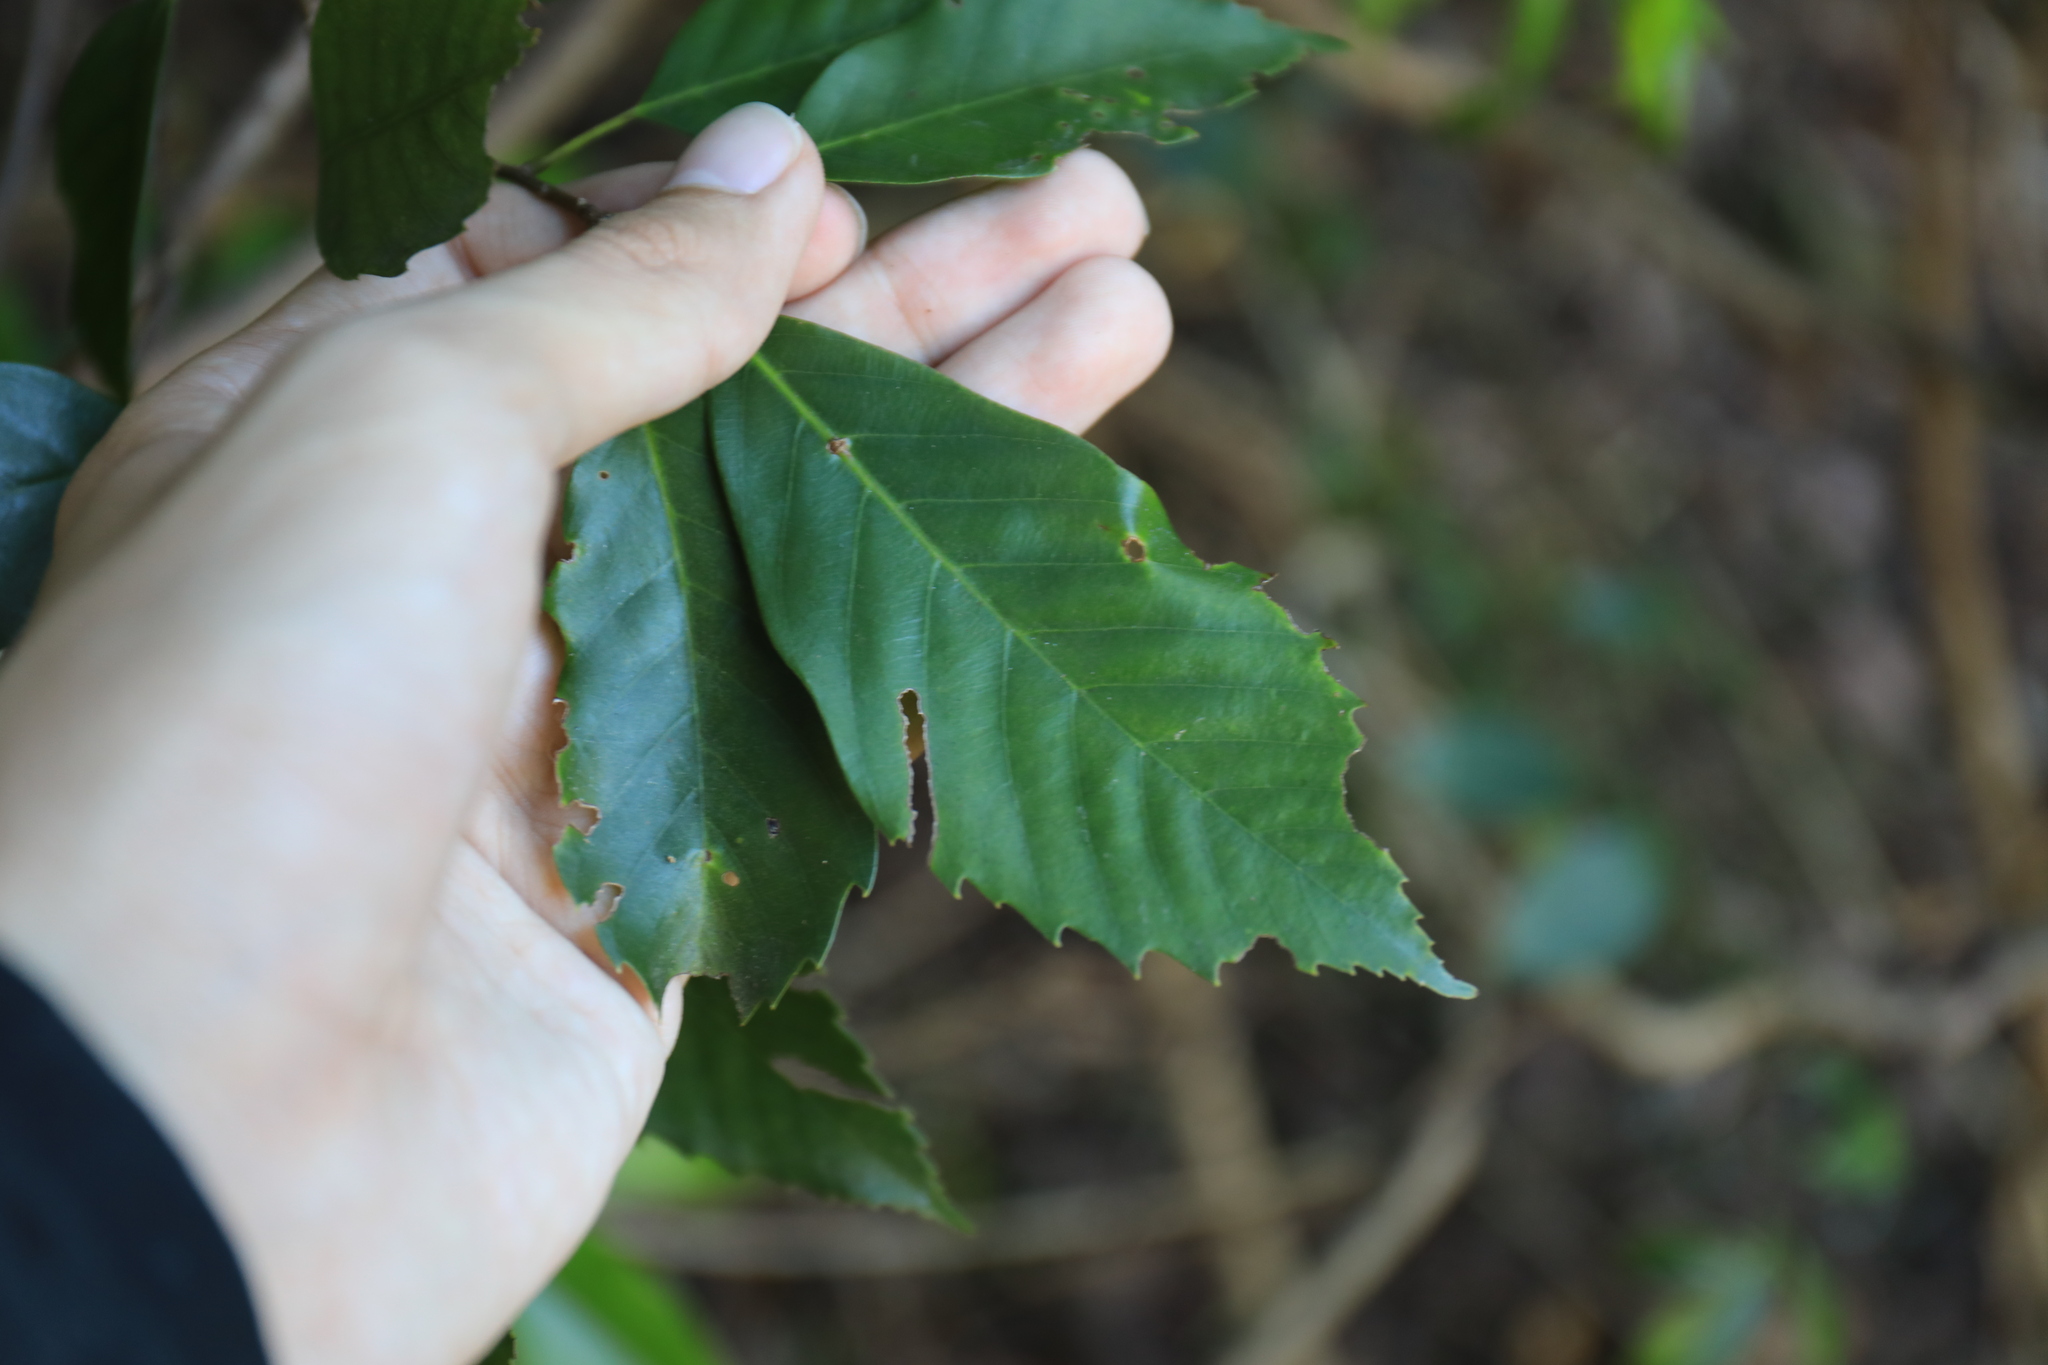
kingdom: Plantae
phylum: Tracheophyta
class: Magnoliopsida
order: Fagales
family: Fagaceae
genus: Quercus
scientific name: Quercus glauca
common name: Ring-cup oak
